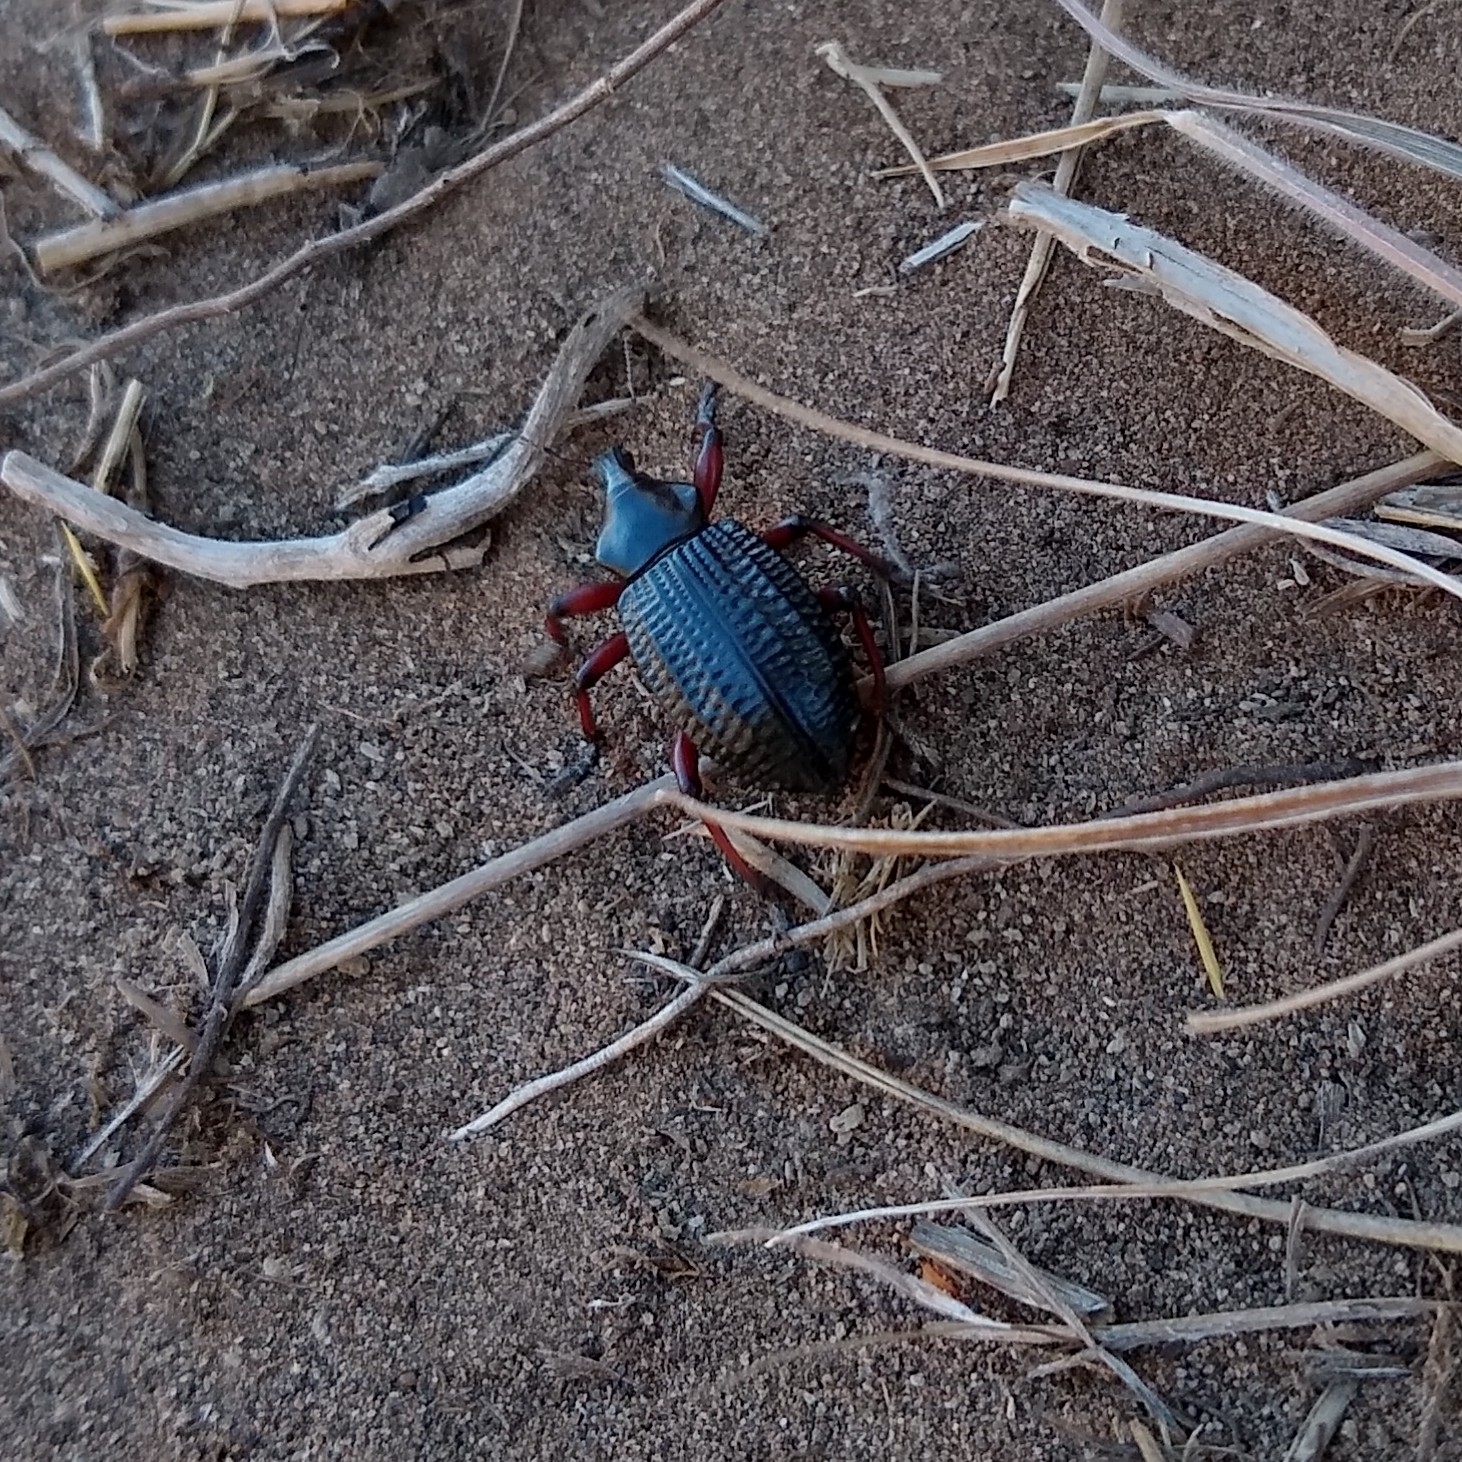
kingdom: Animalia
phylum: Arthropoda
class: Insecta
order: Coleoptera
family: Curculionidae
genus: Cylydrorhinus
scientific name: Cylydrorhinus angulatus
